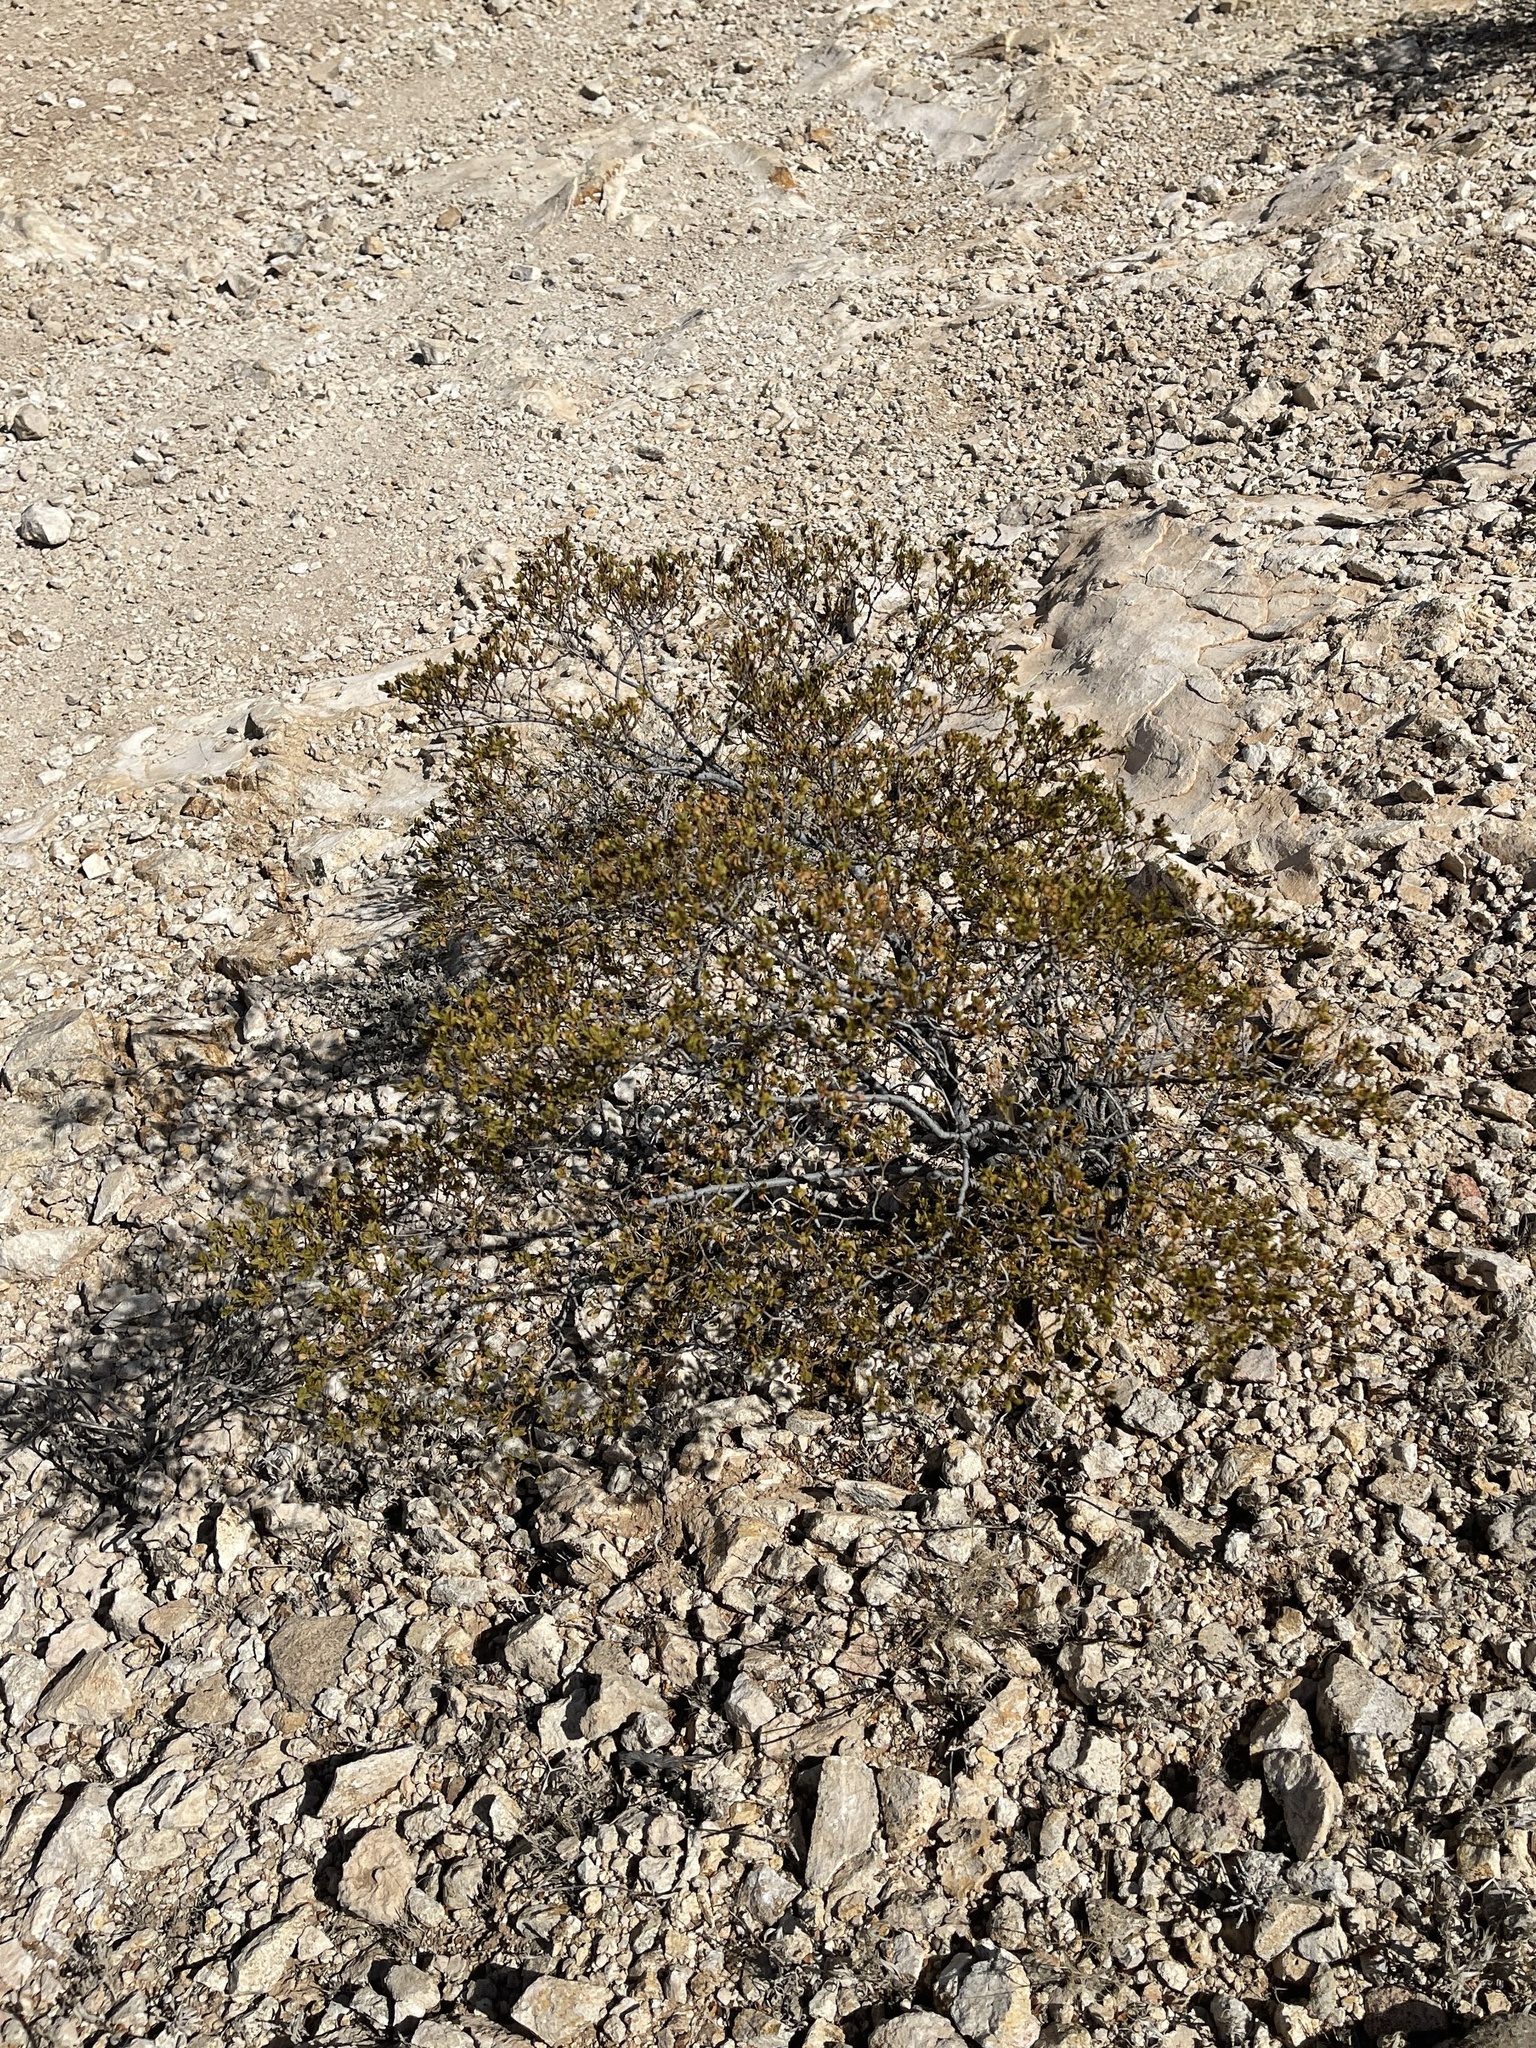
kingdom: Plantae
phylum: Tracheophyta
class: Magnoliopsida
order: Zygophyllales
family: Zygophyllaceae
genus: Larrea
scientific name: Larrea tridentata
